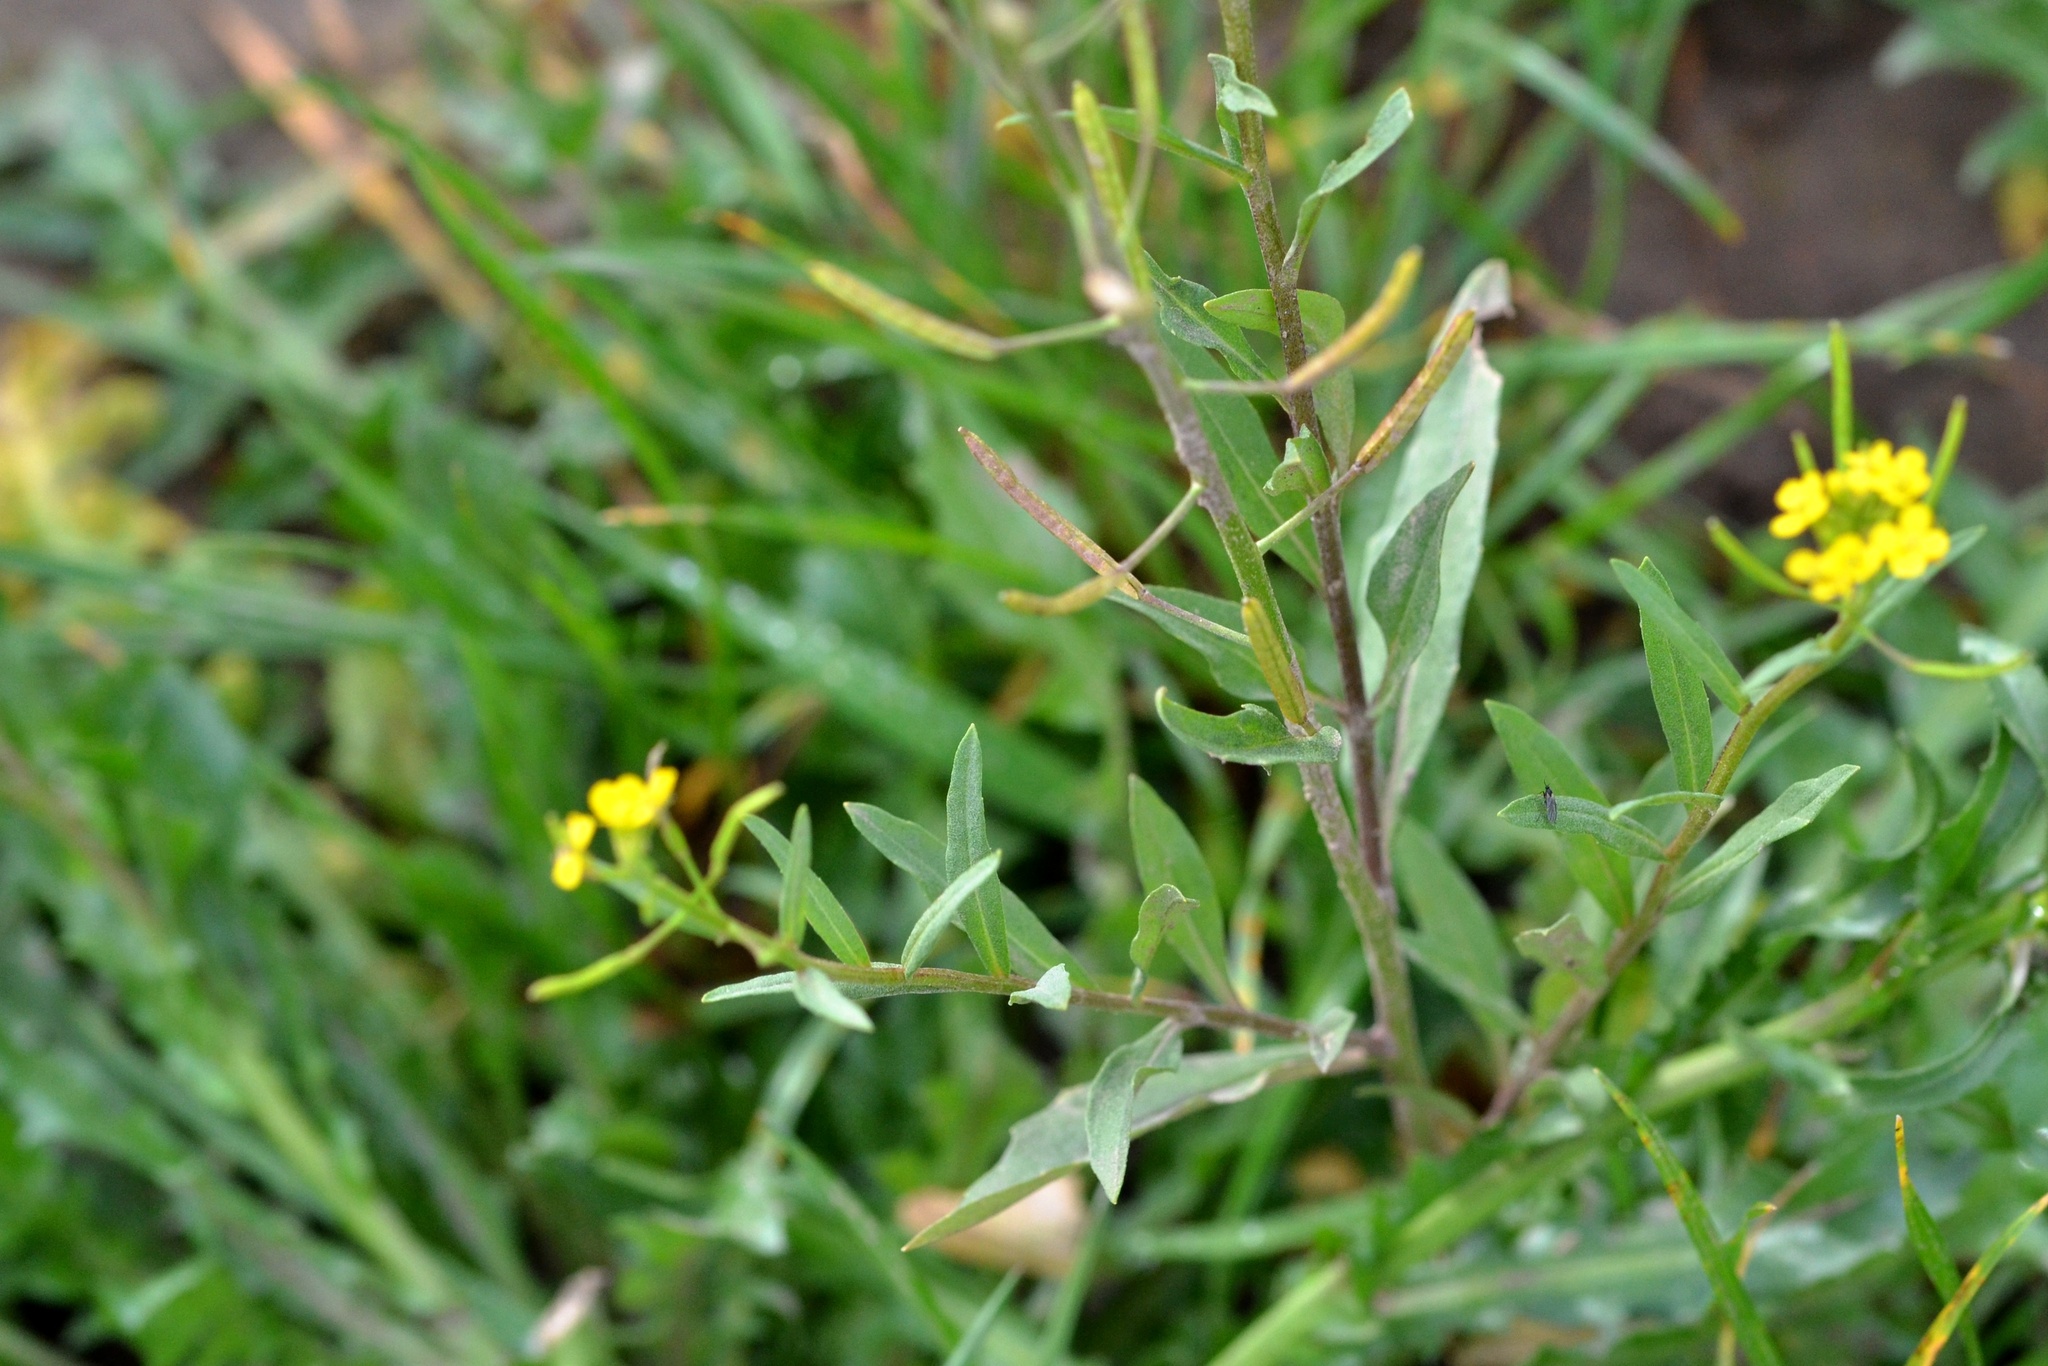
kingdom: Plantae
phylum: Tracheophyta
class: Magnoliopsida
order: Brassicales
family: Brassicaceae
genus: Erysimum
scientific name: Erysimum cheiranthoides
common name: Treacle mustard
